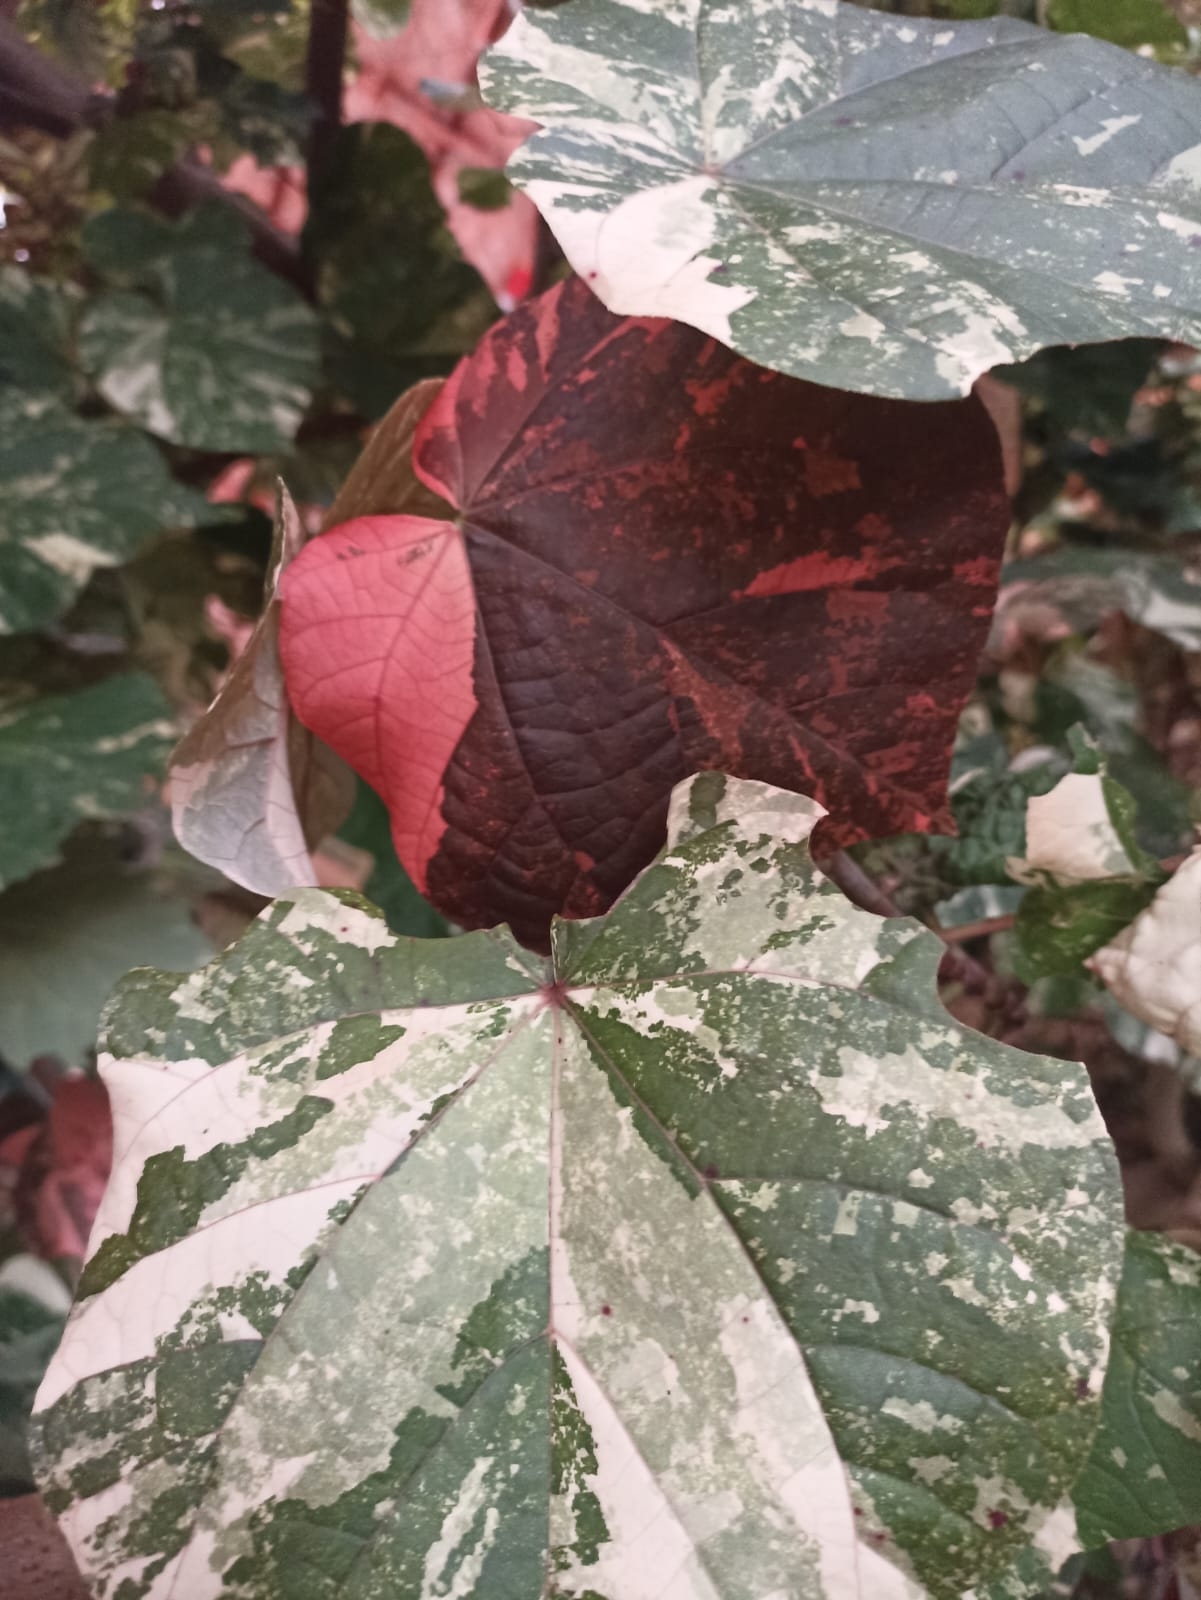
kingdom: Plantae
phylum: Tracheophyta
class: Magnoliopsida
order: Malvales
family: Malvaceae
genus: Talipariti
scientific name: Talipariti tiliaceum
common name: Sea hibiscus
